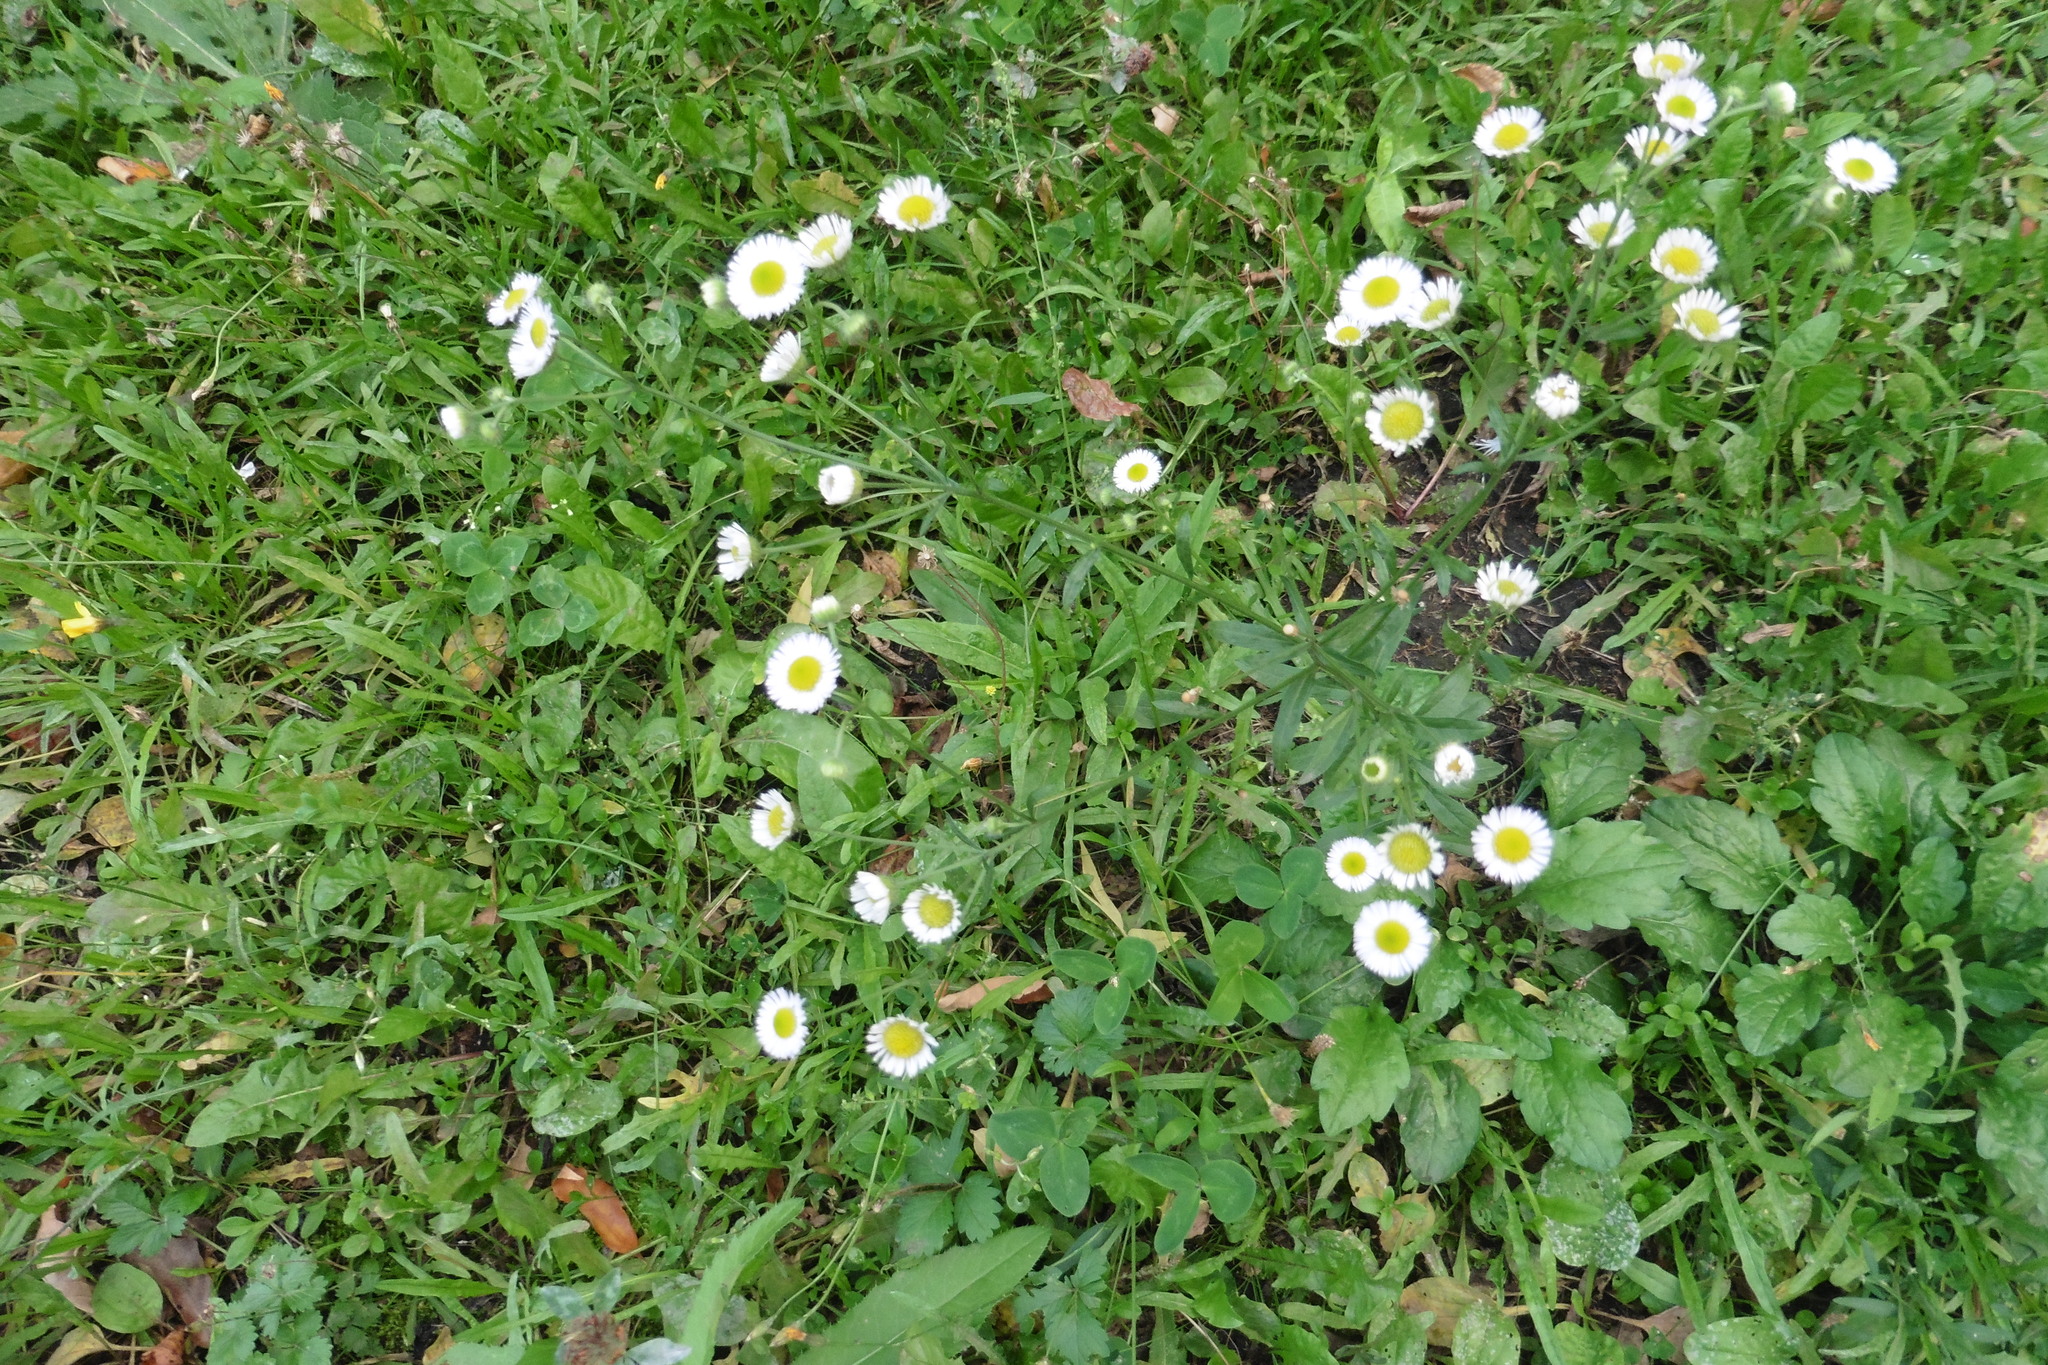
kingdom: Plantae
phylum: Tracheophyta
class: Magnoliopsida
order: Asterales
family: Asteraceae
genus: Erigeron
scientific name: Erigeron strigosus
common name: Common eastern fleabane
